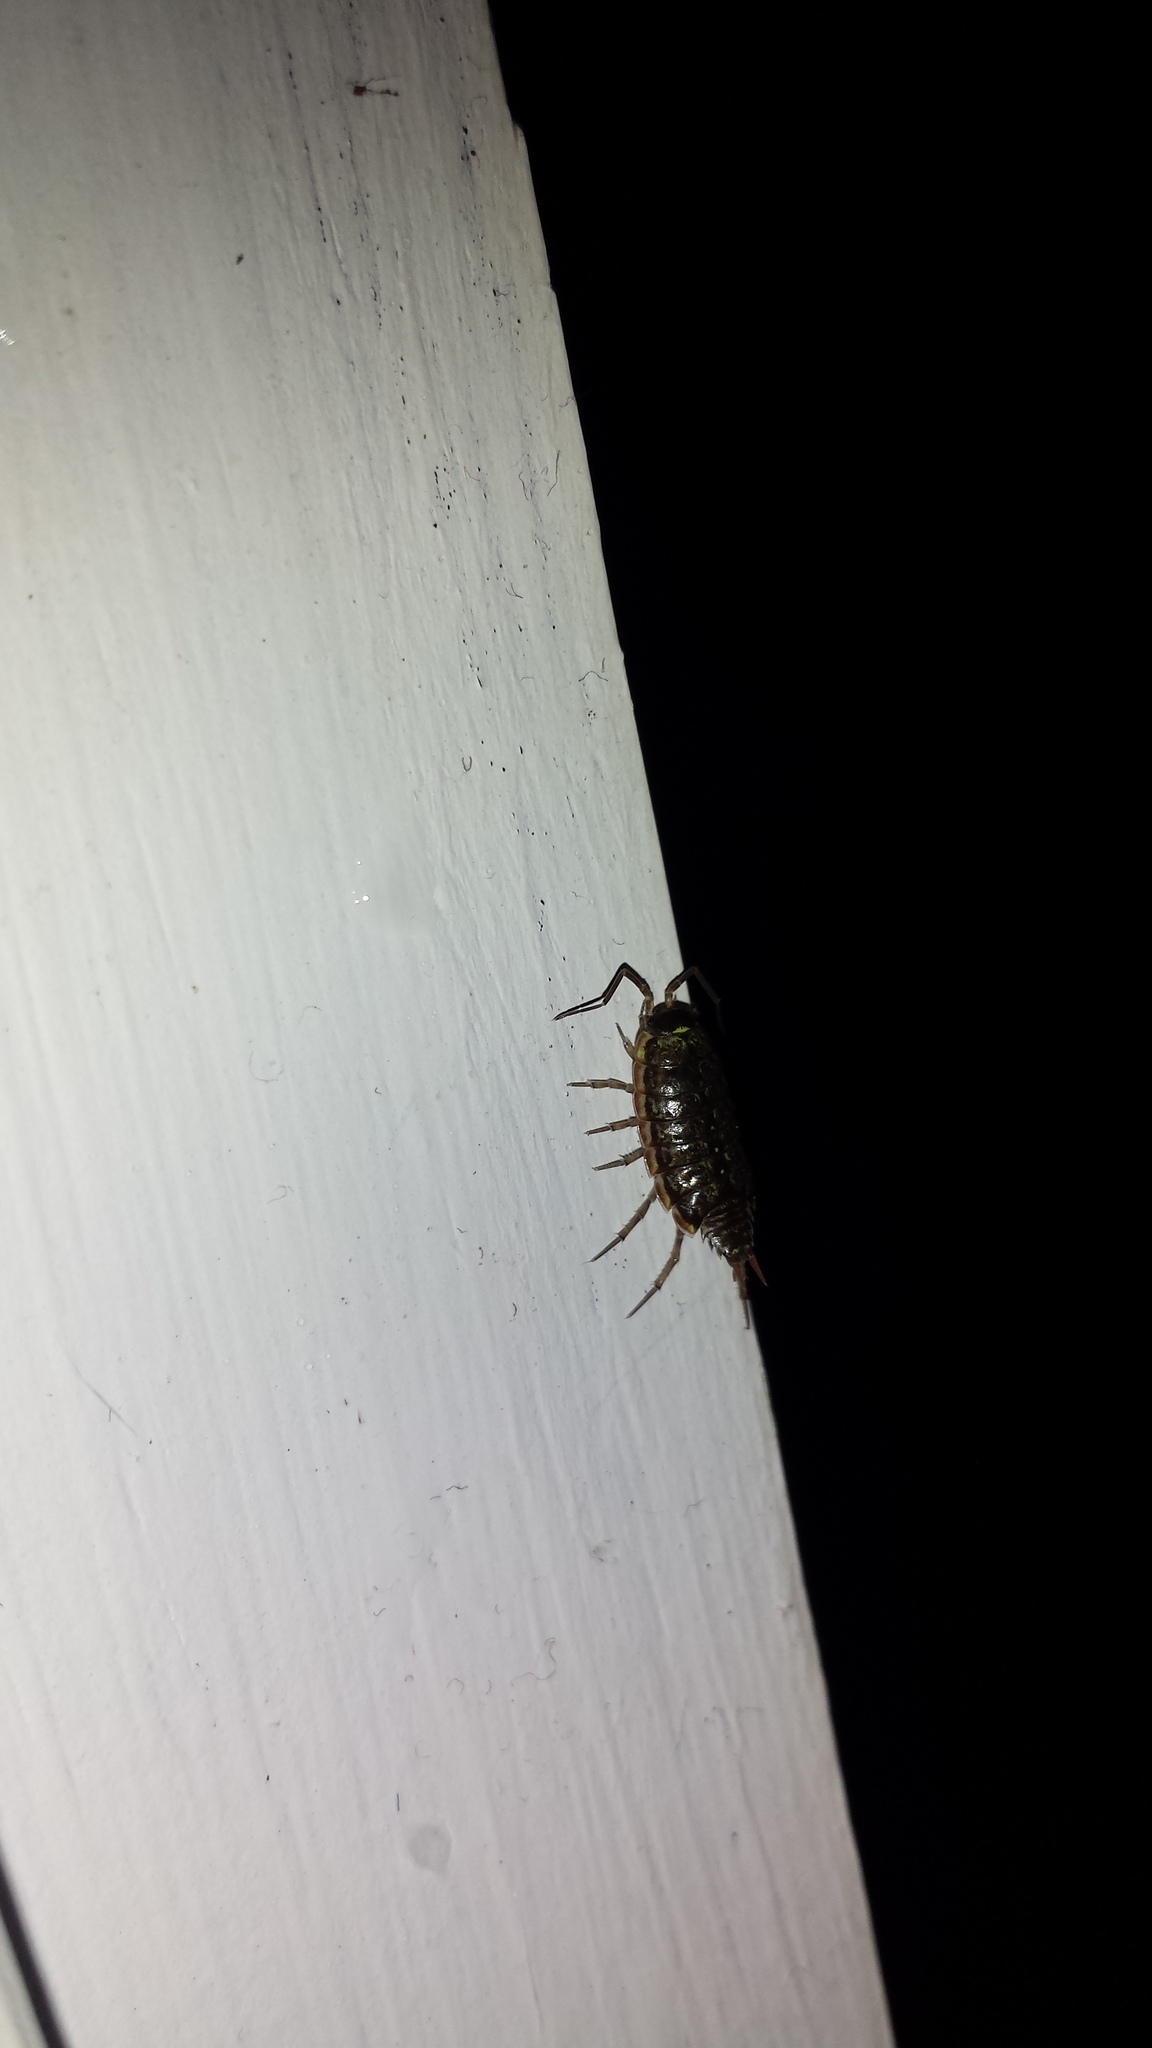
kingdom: Animalia
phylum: Arthropoda
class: Malacostraca
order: Isopoda
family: Philosciidae
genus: Philoscia
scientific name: Philoscia muscorum
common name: Common striped woodlouse
